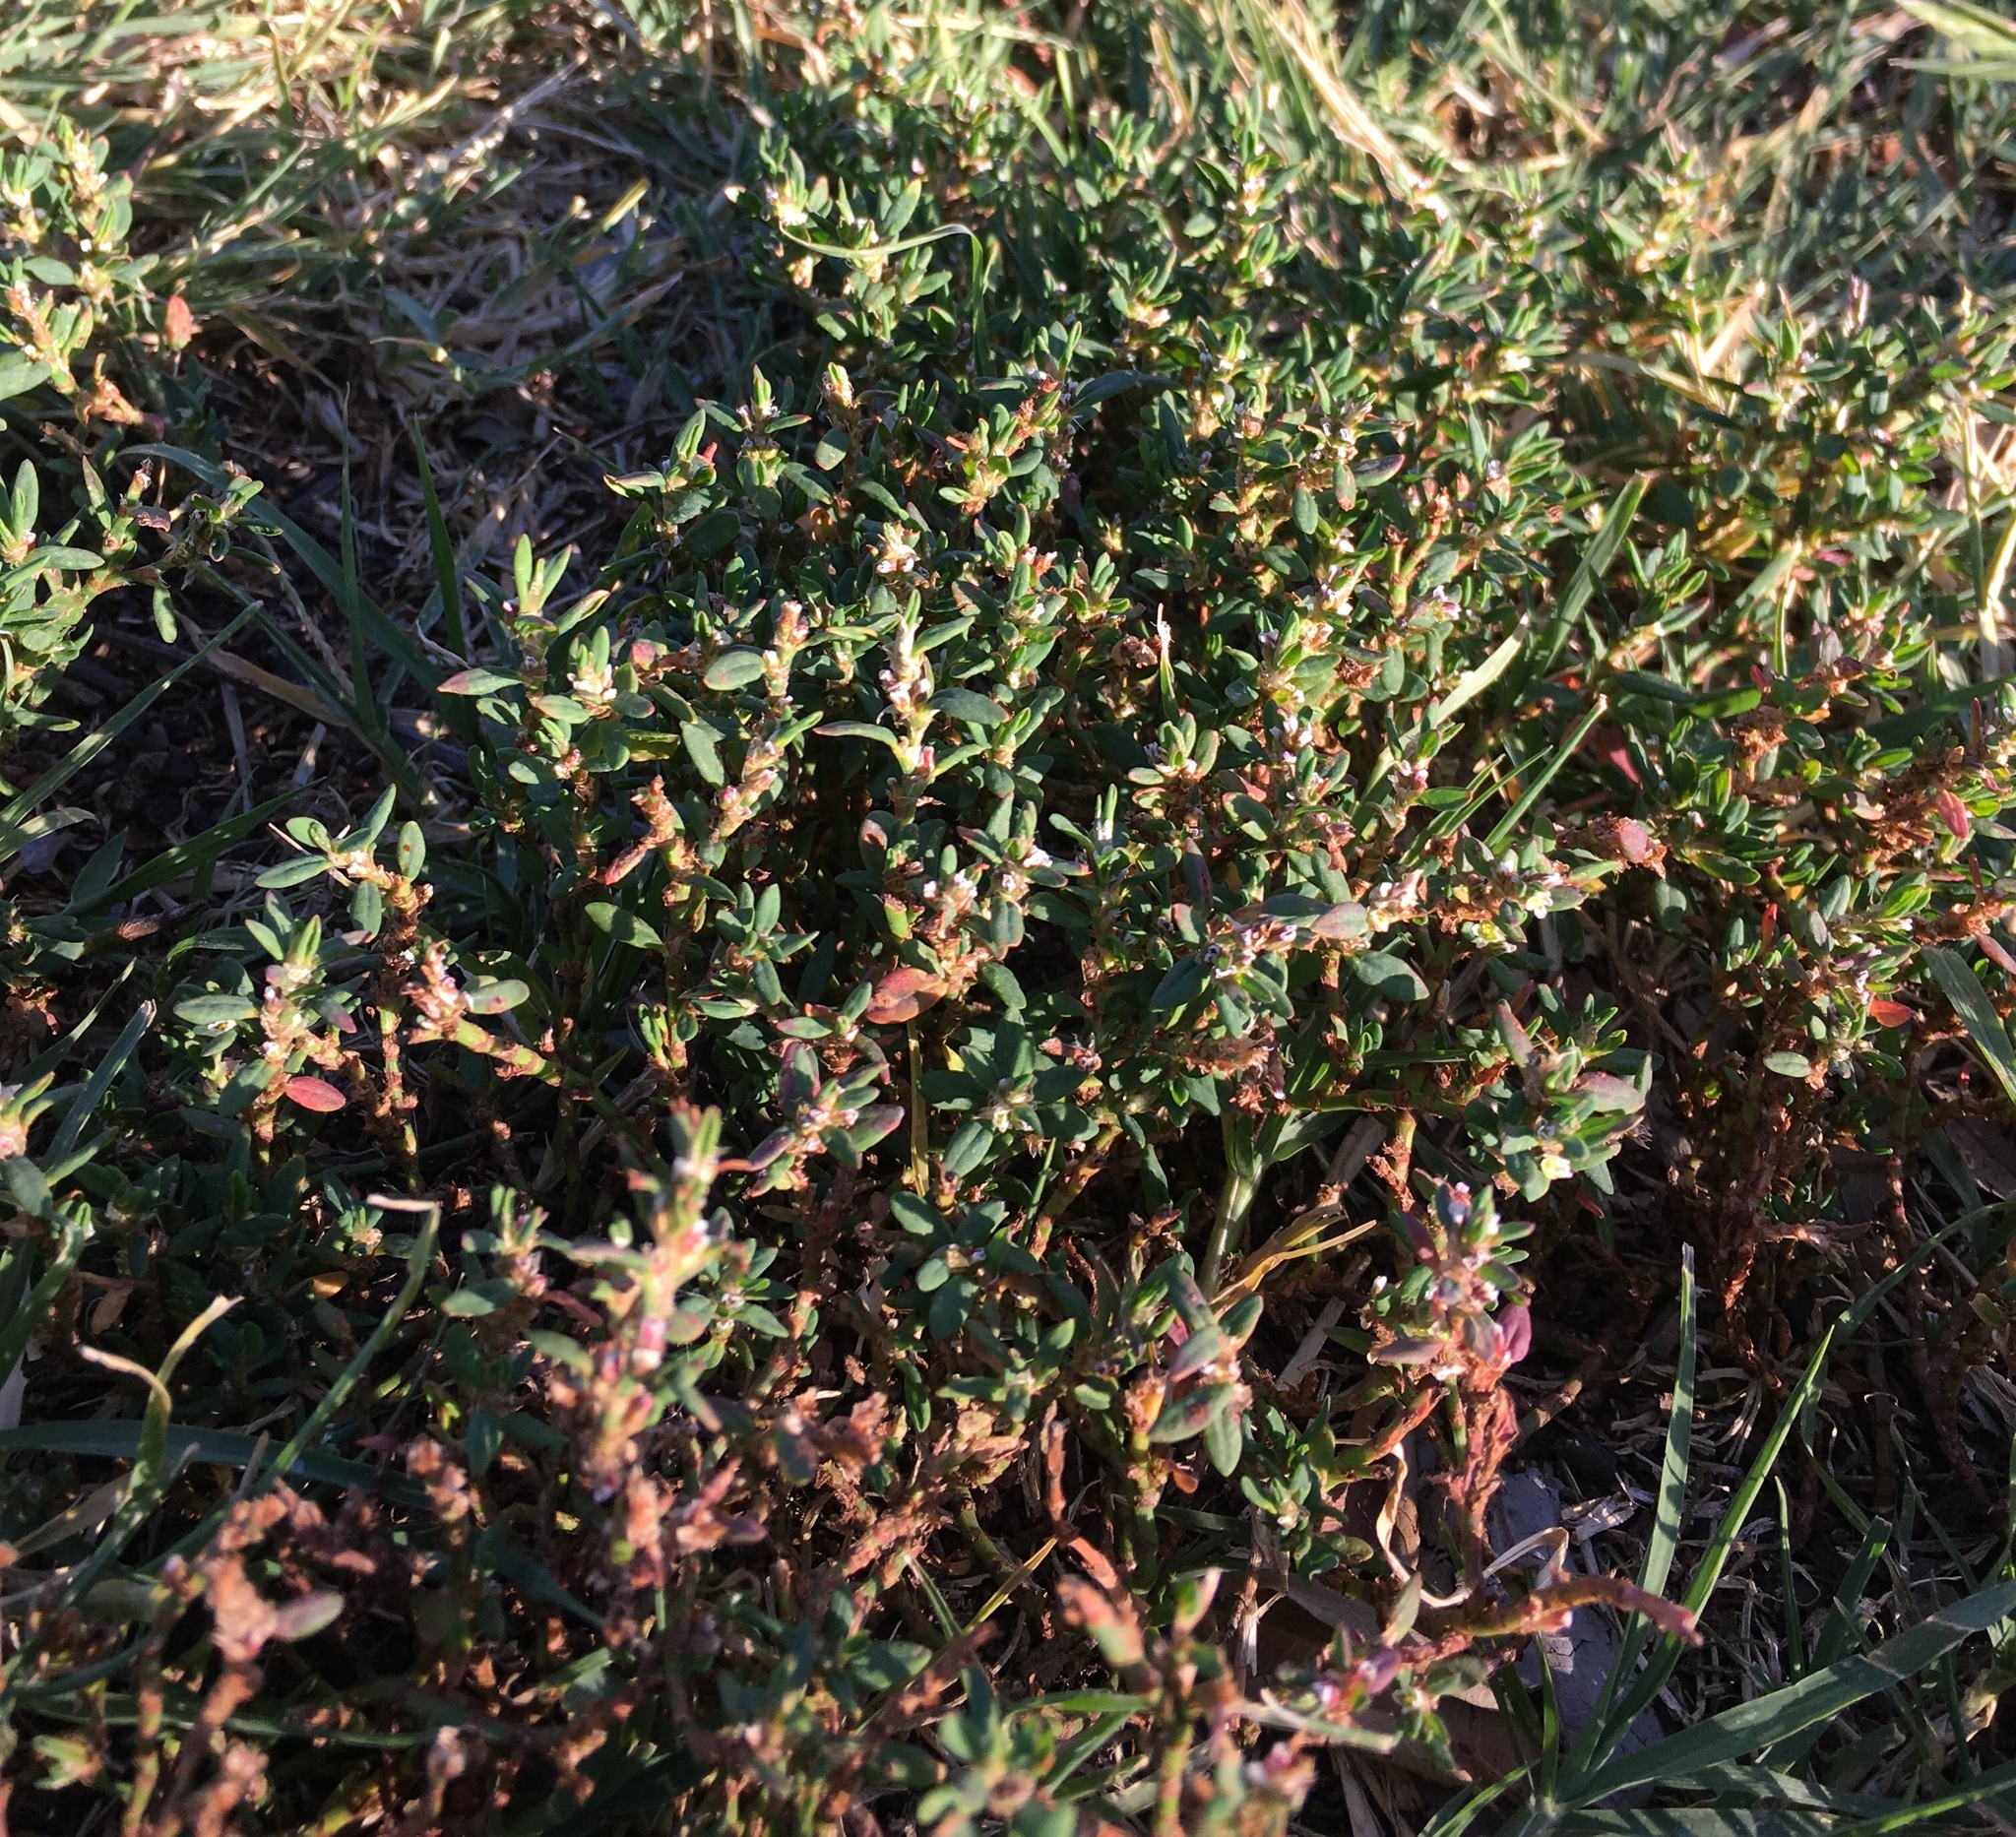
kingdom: Plantae
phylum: Tracheophyta
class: Magnoliopsida
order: Caryophyllales
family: Polygonaceae
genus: Polygonum
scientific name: Polygonum aviculare
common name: Prostrate knotweed
